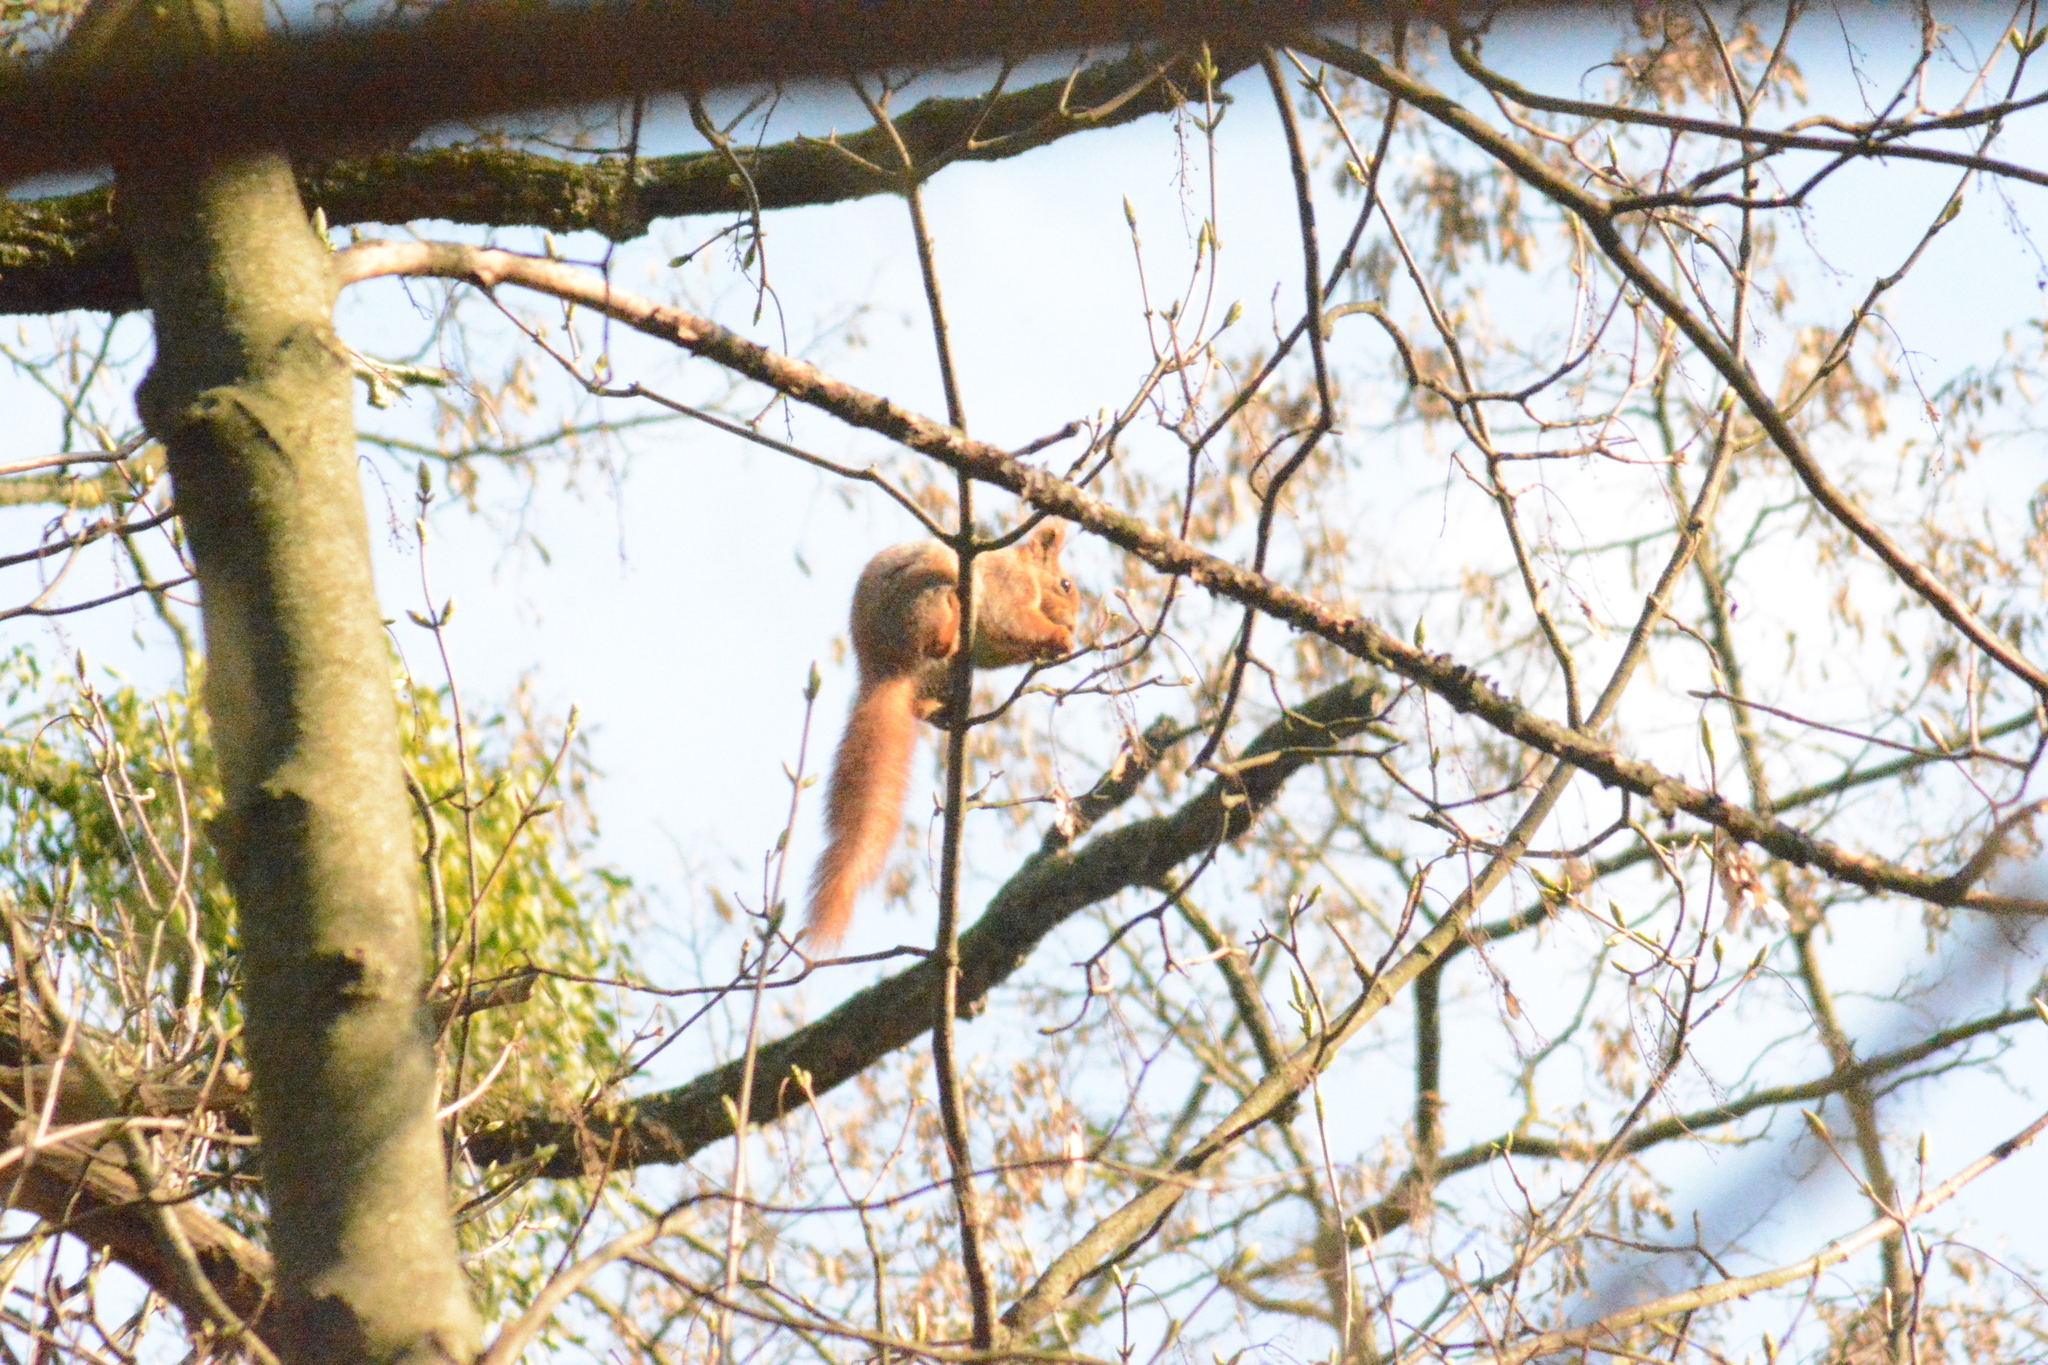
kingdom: Animalia
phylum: Chordata
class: Mammalia
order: Rodentia
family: Sciuridae
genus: Sciurus
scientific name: Sciurus vulgaris
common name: Eurasian red squirrel
